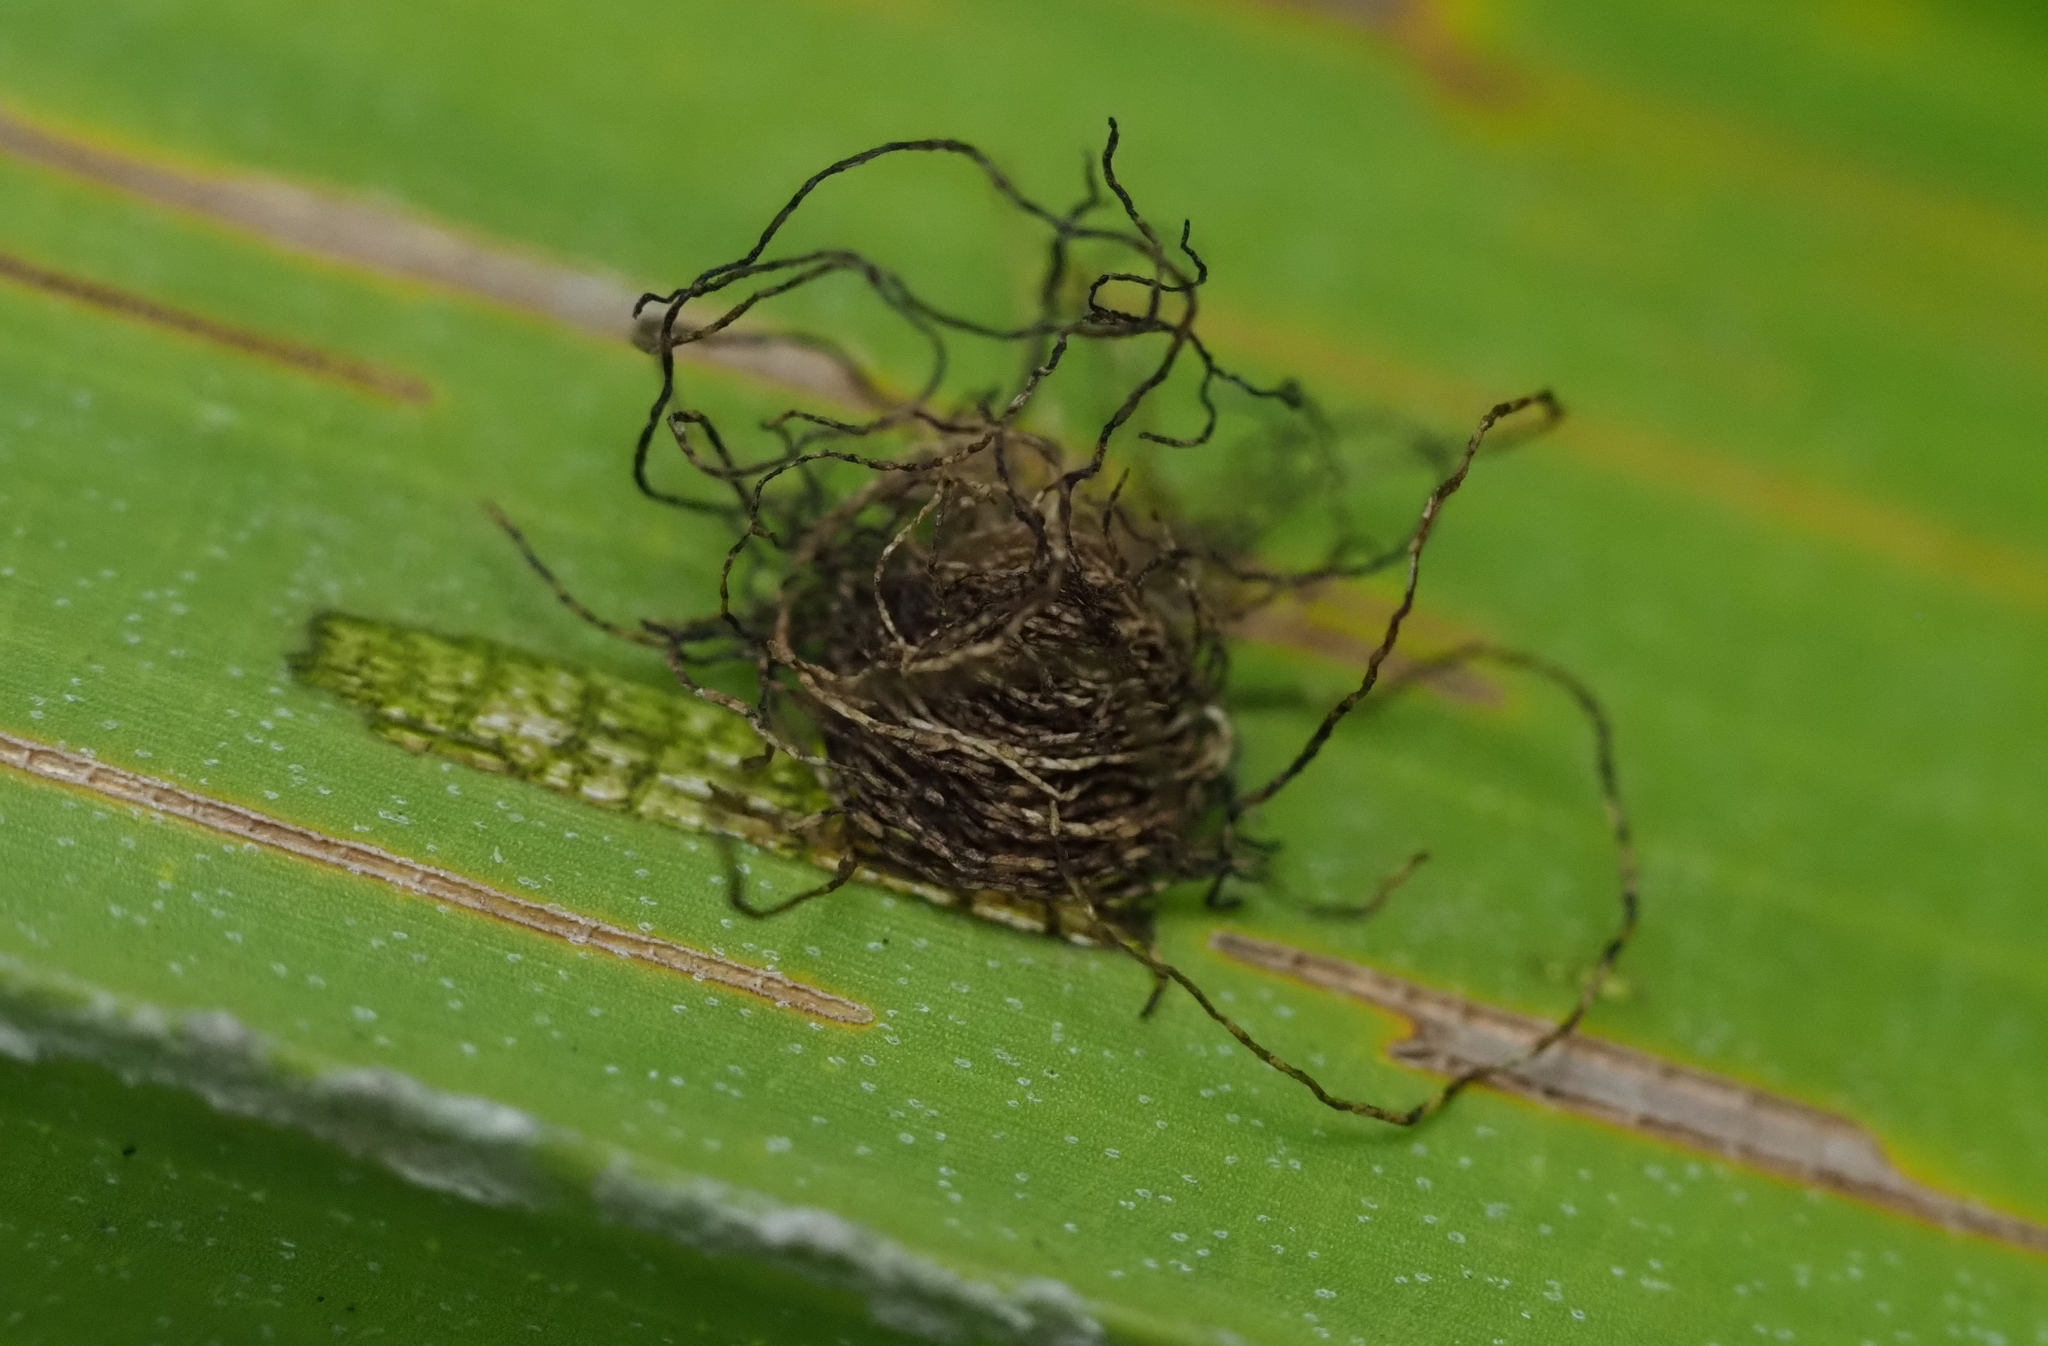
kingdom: Animalia
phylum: Arthropoda
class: Insecta
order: Coleoptera
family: Chrysomelidae
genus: Hemisphaerota
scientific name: Hemisphaerota palmarum
